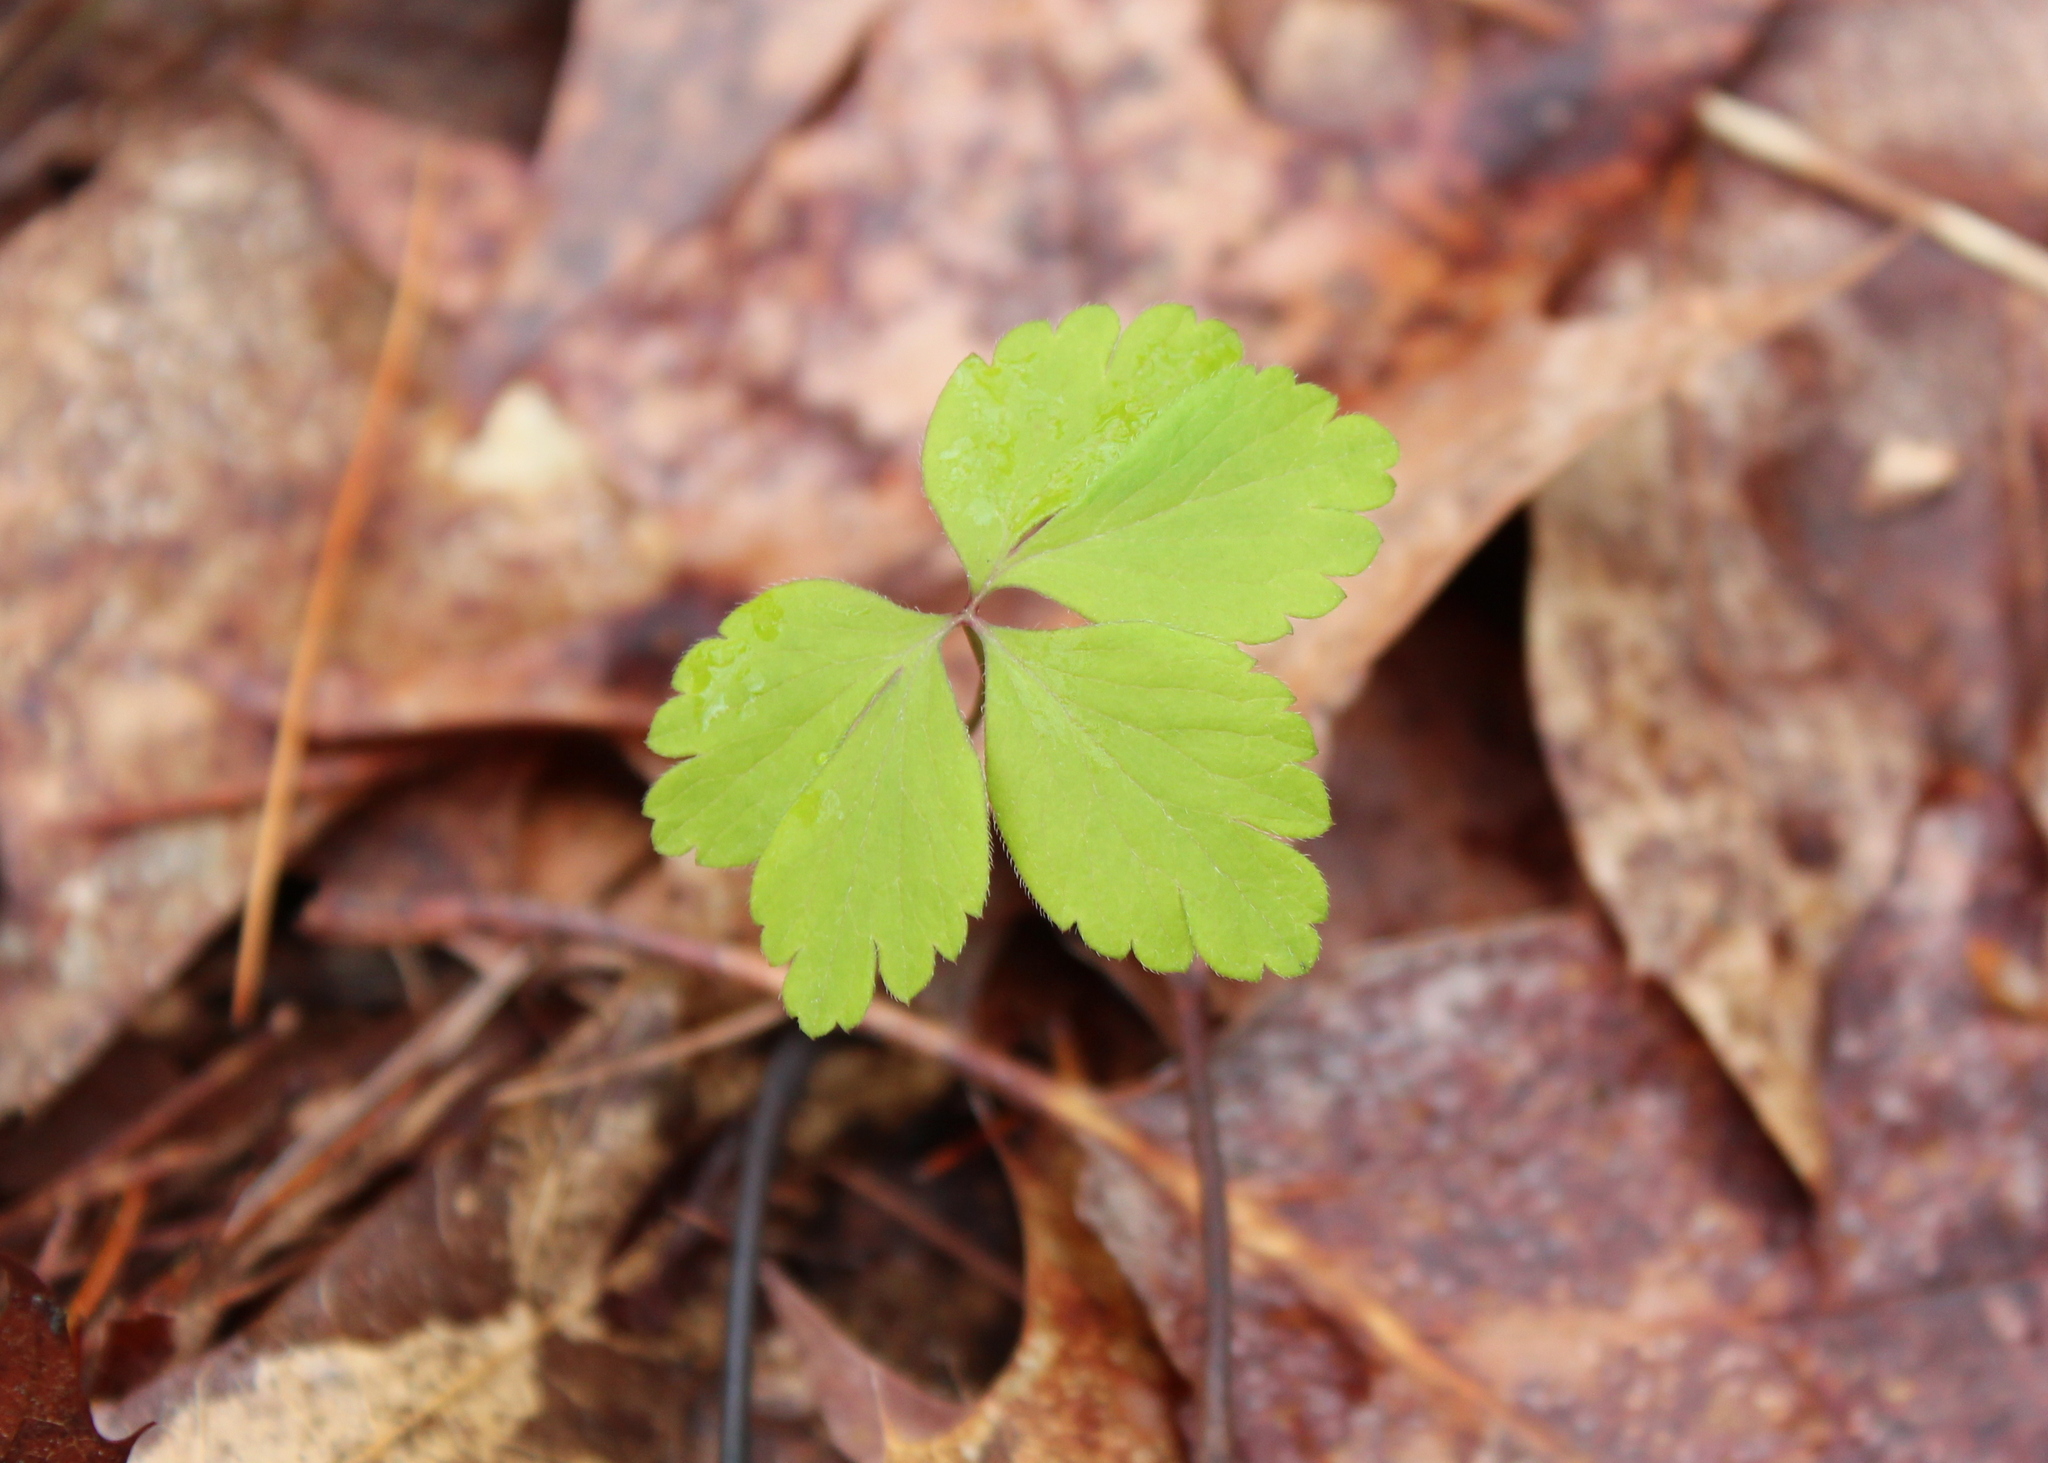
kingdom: Plantae
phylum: Tracheophyta
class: Magnoliopsida
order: Ranunculales
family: Ranunculaceae
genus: Anemone
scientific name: Anemone quinquefolia
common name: Wood anemone
